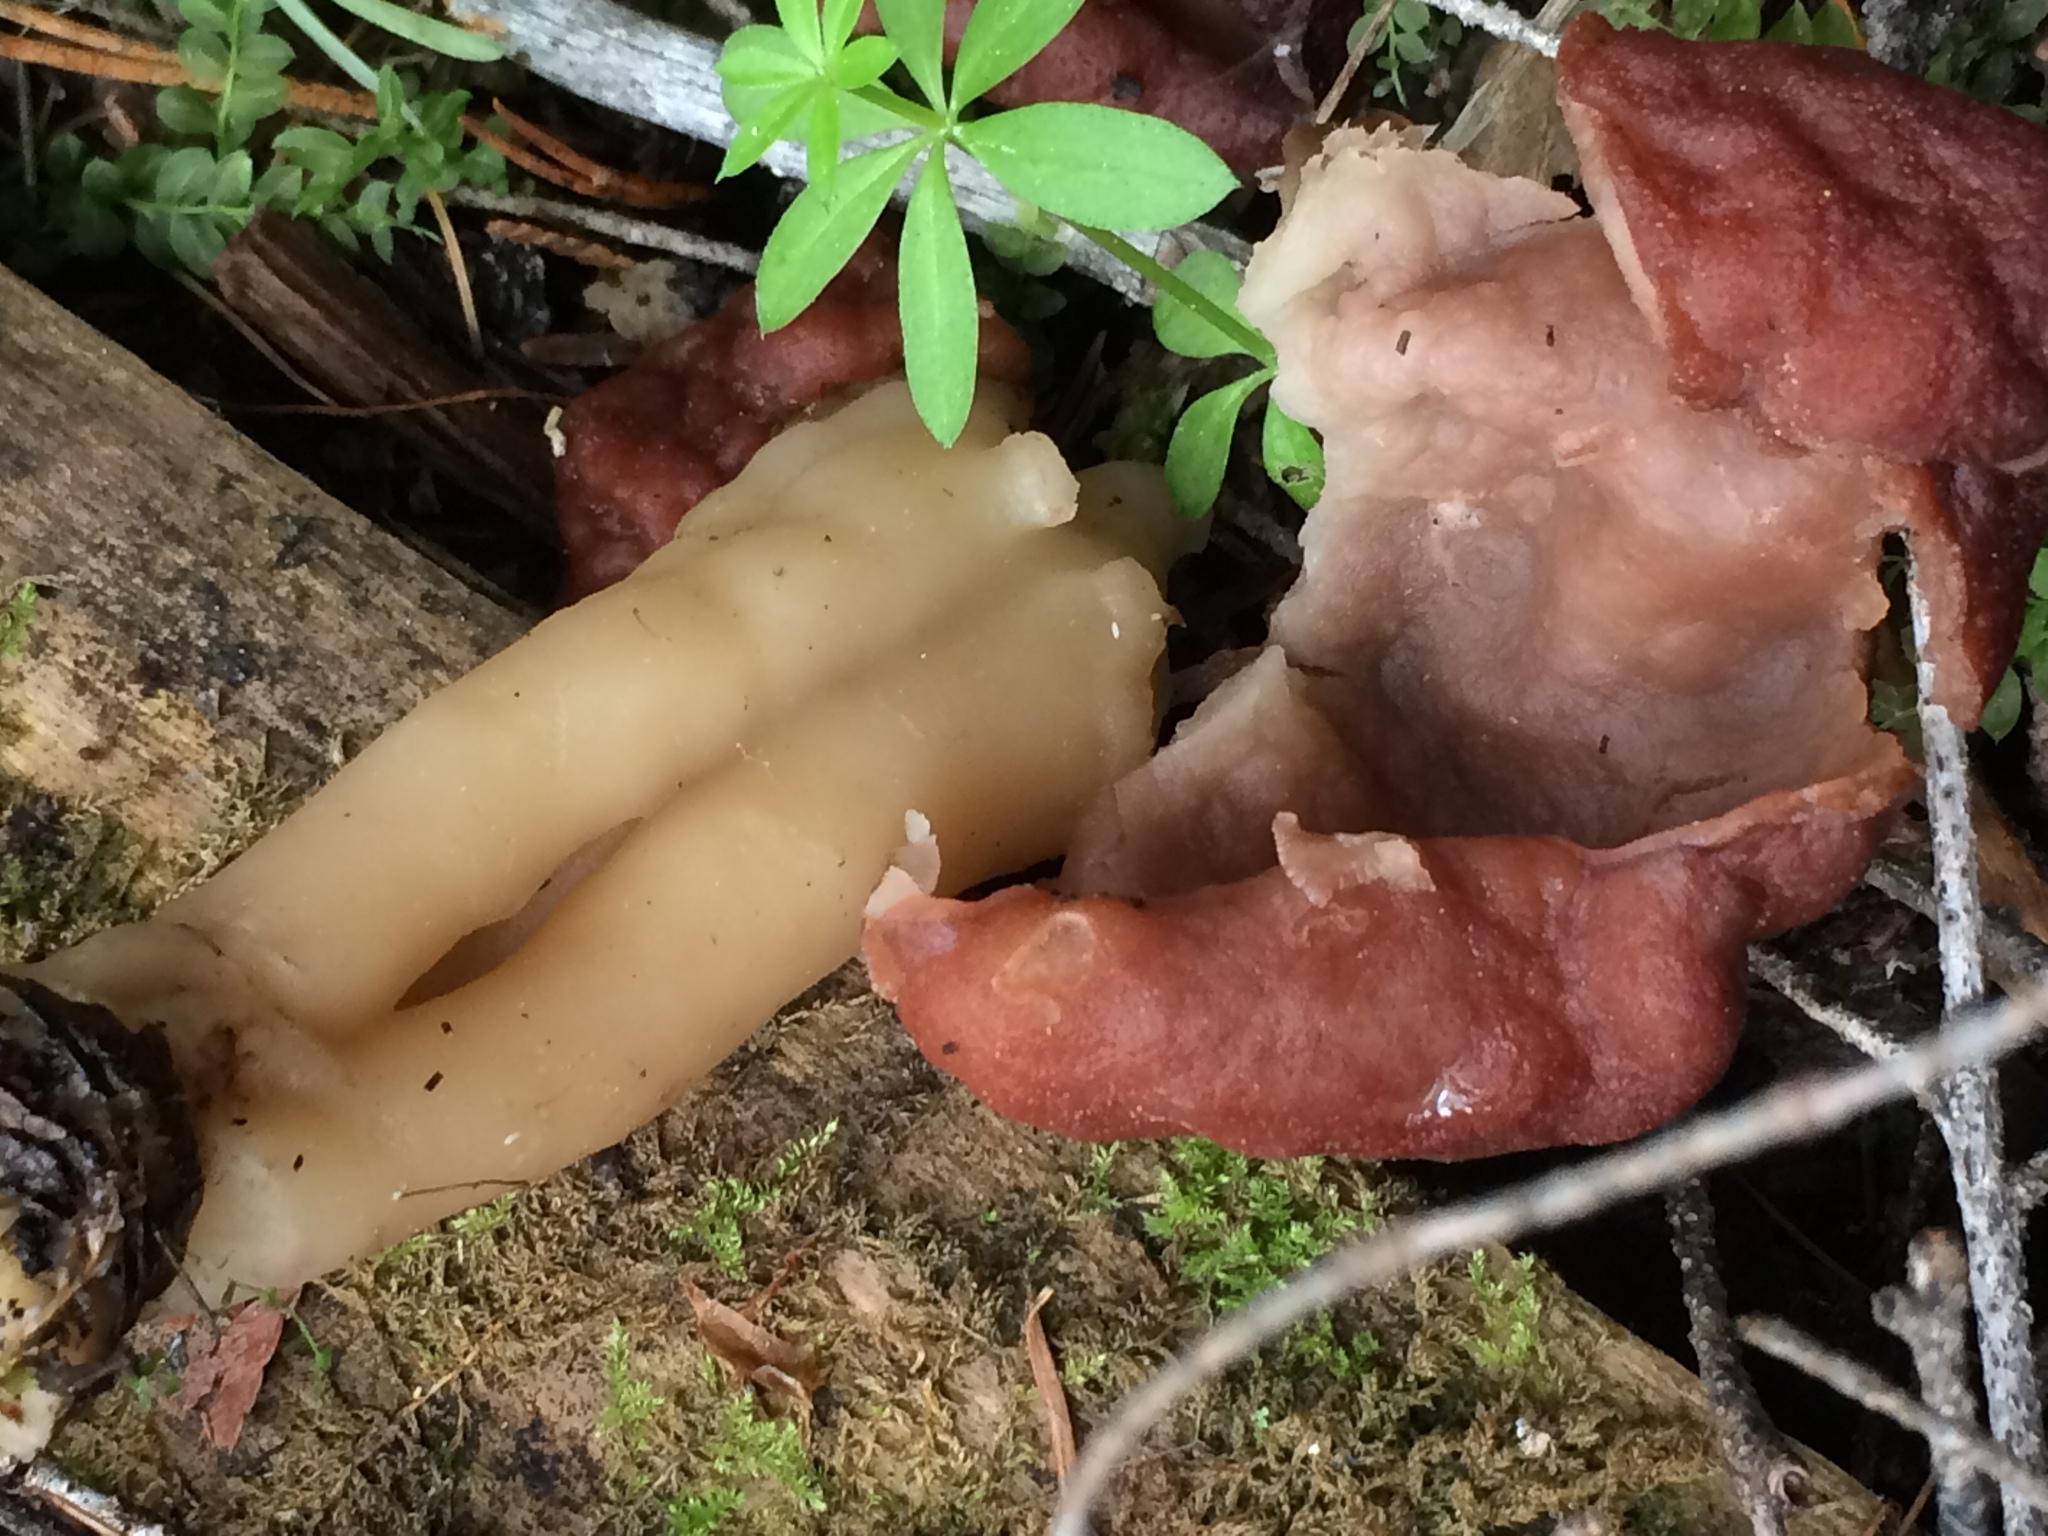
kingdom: Fungi
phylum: Ascomycota
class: Pezizomycetes
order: Pezizales
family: Discinaceae
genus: Gyromitra
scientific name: Gyromitra esculenta
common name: False morel
